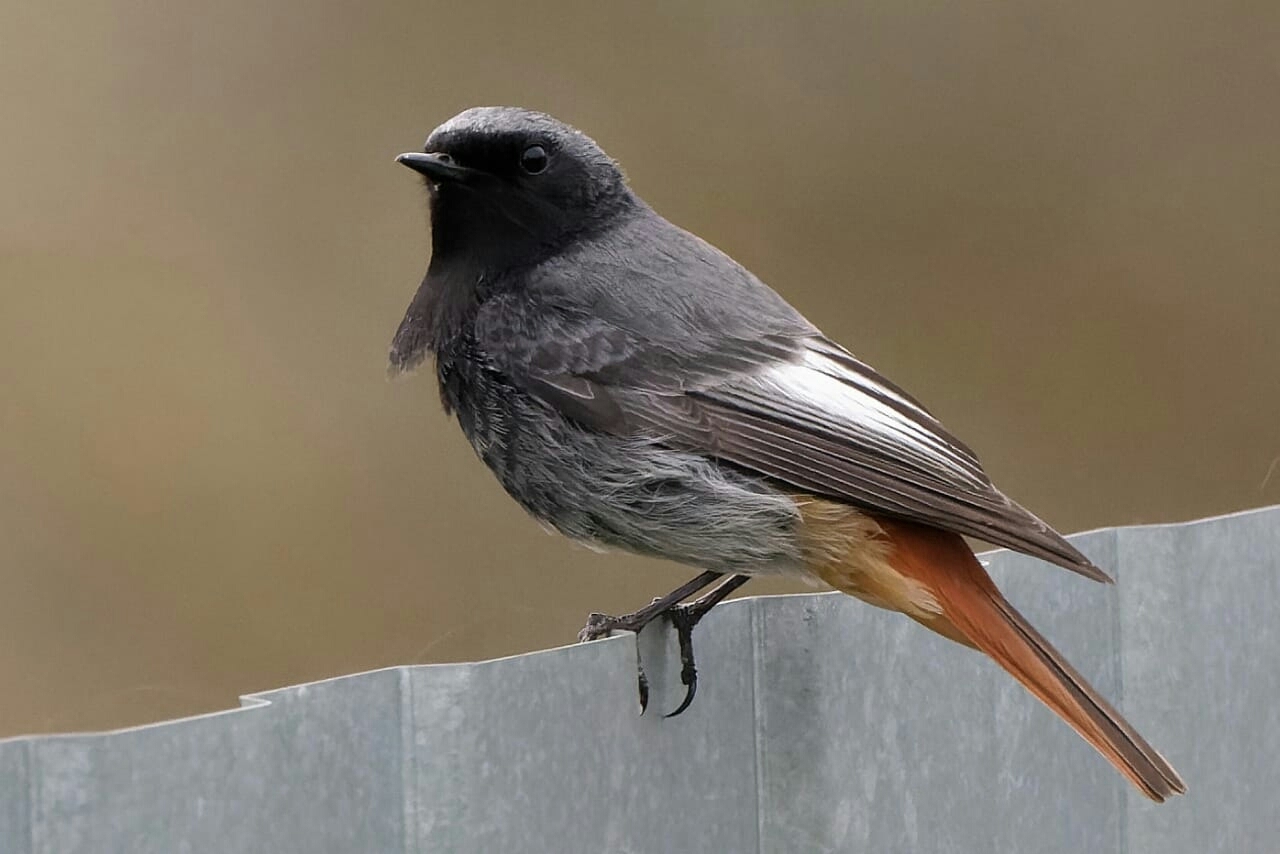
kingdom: Animalia
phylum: Chordata
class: Aves
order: Passeriformes
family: Muscicapidae
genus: Phoenicurus
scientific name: Phoenicurus ochruros
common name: Black redstart
